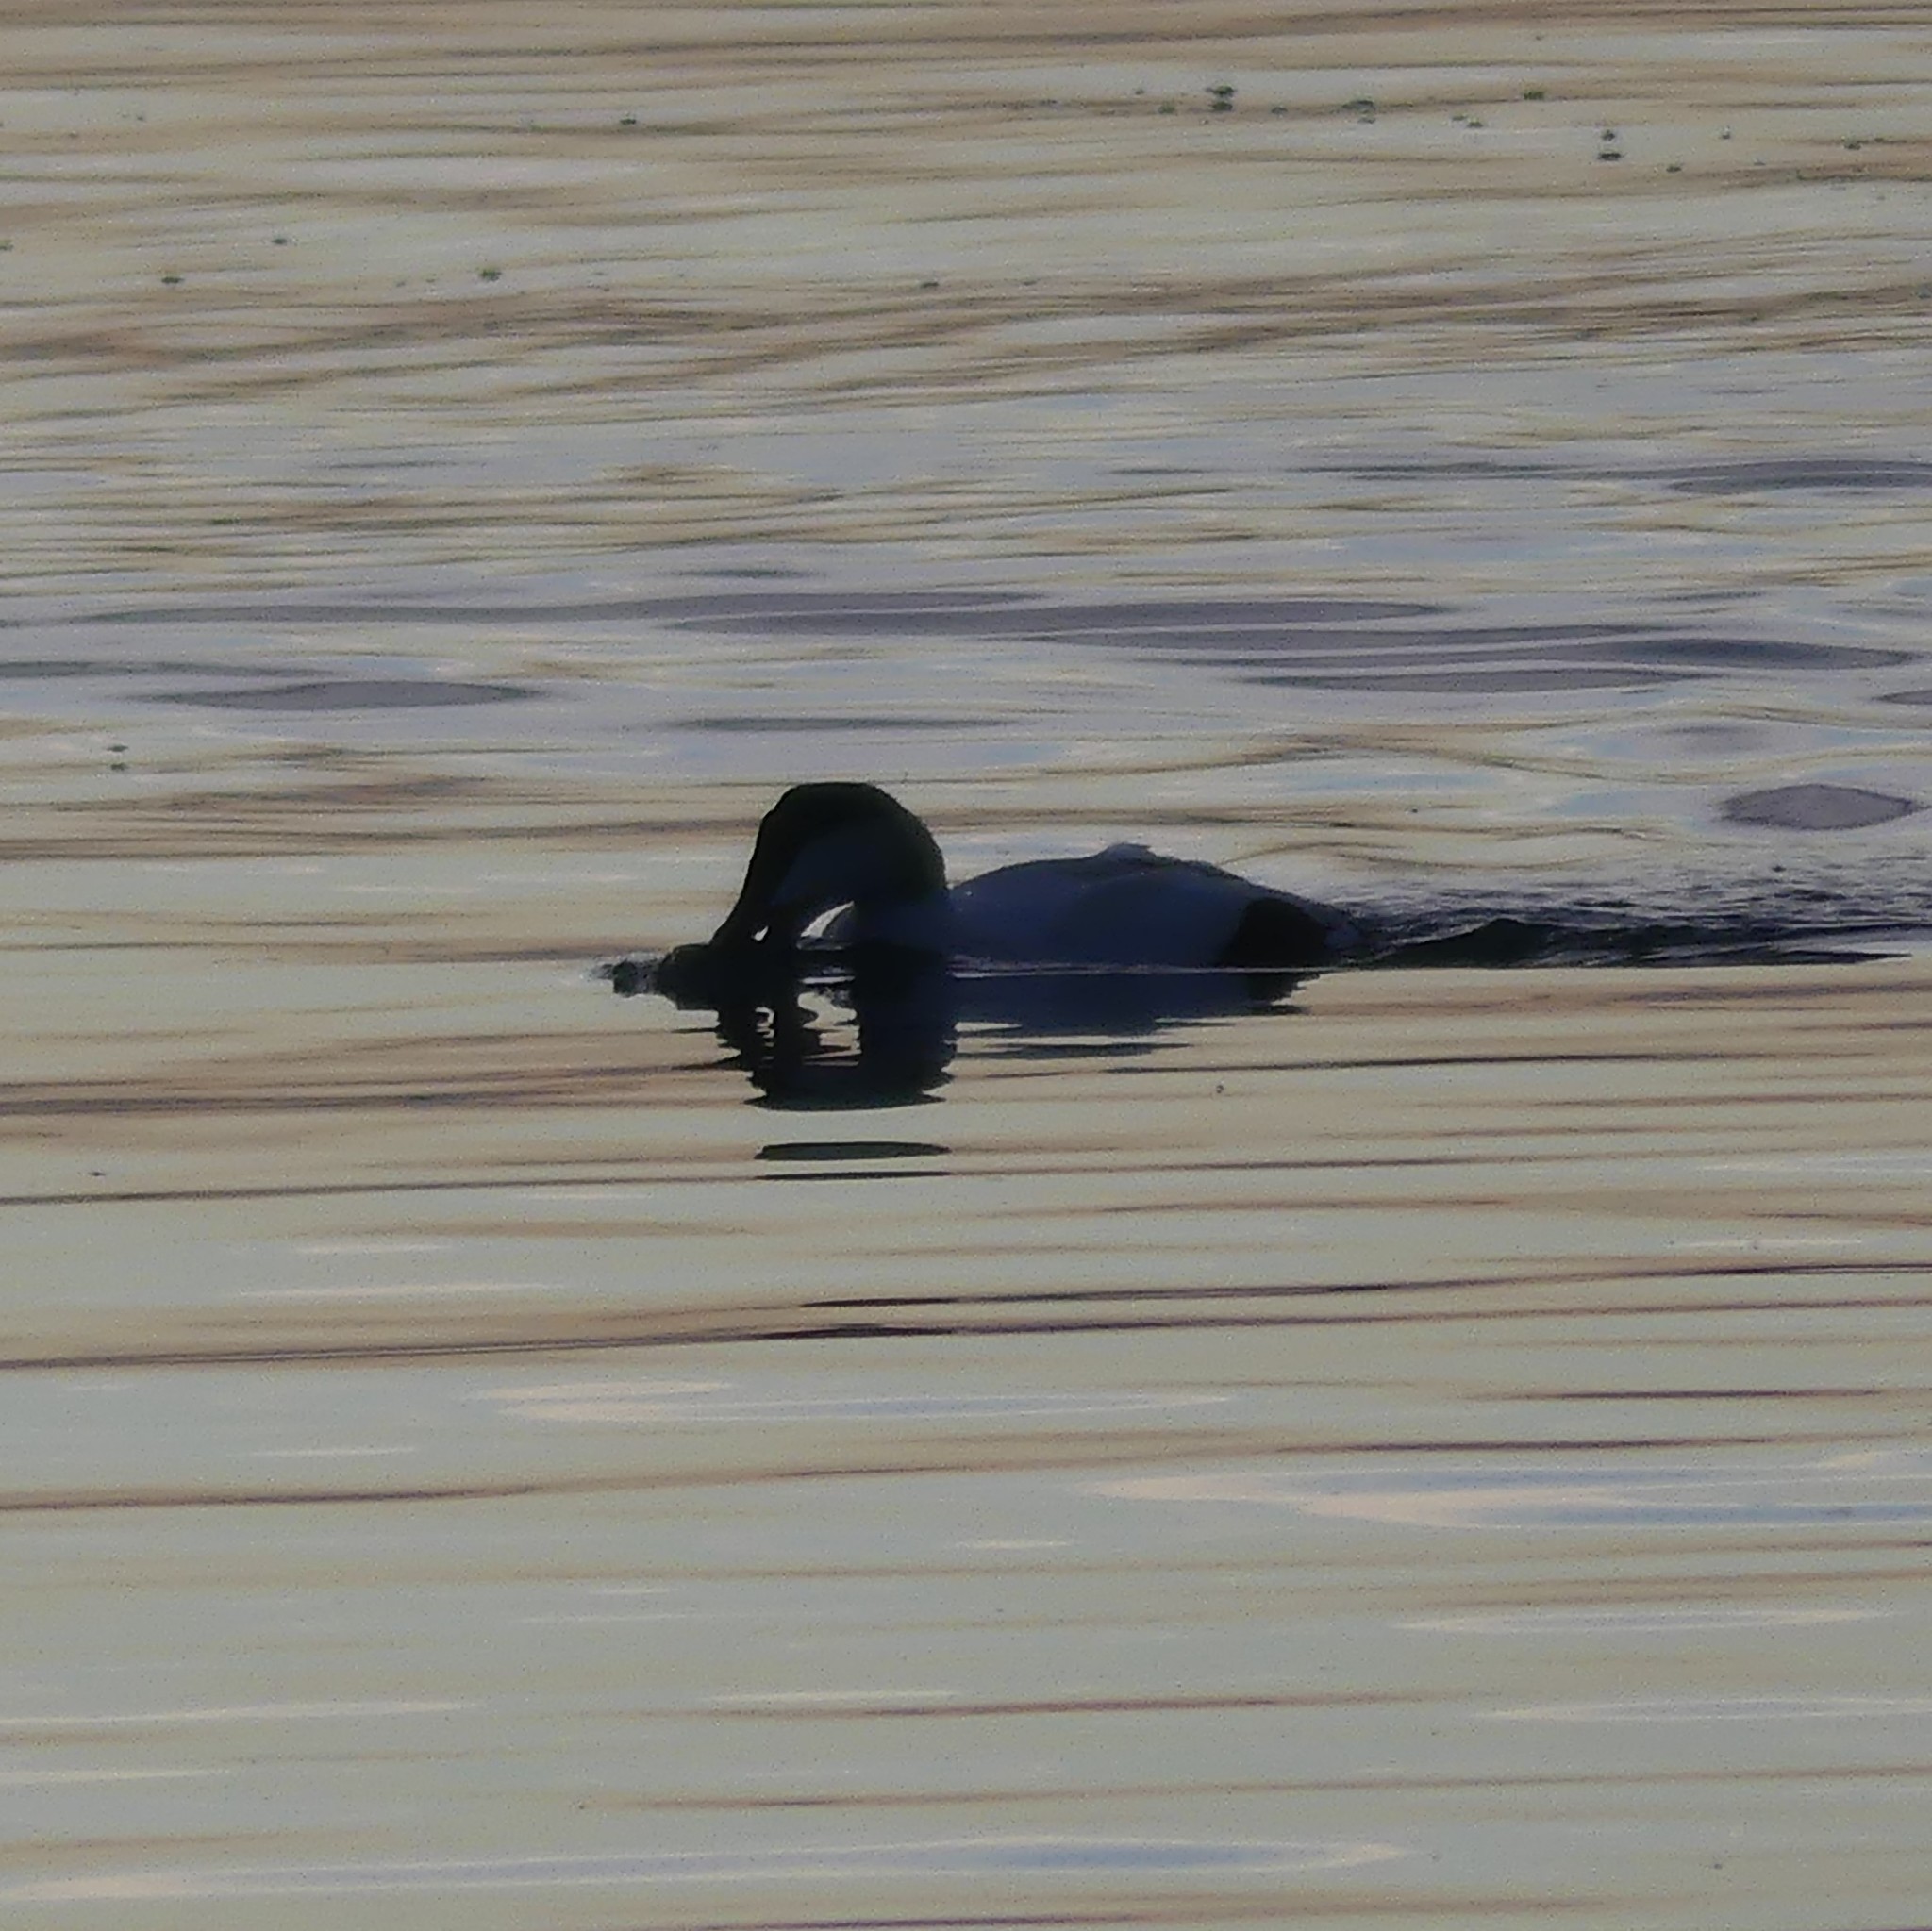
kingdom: Animalia
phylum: Chordata
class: Aves
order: Anseriformes
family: Anatidae
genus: Somateria
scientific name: Somateria mollissima
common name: Common eider
